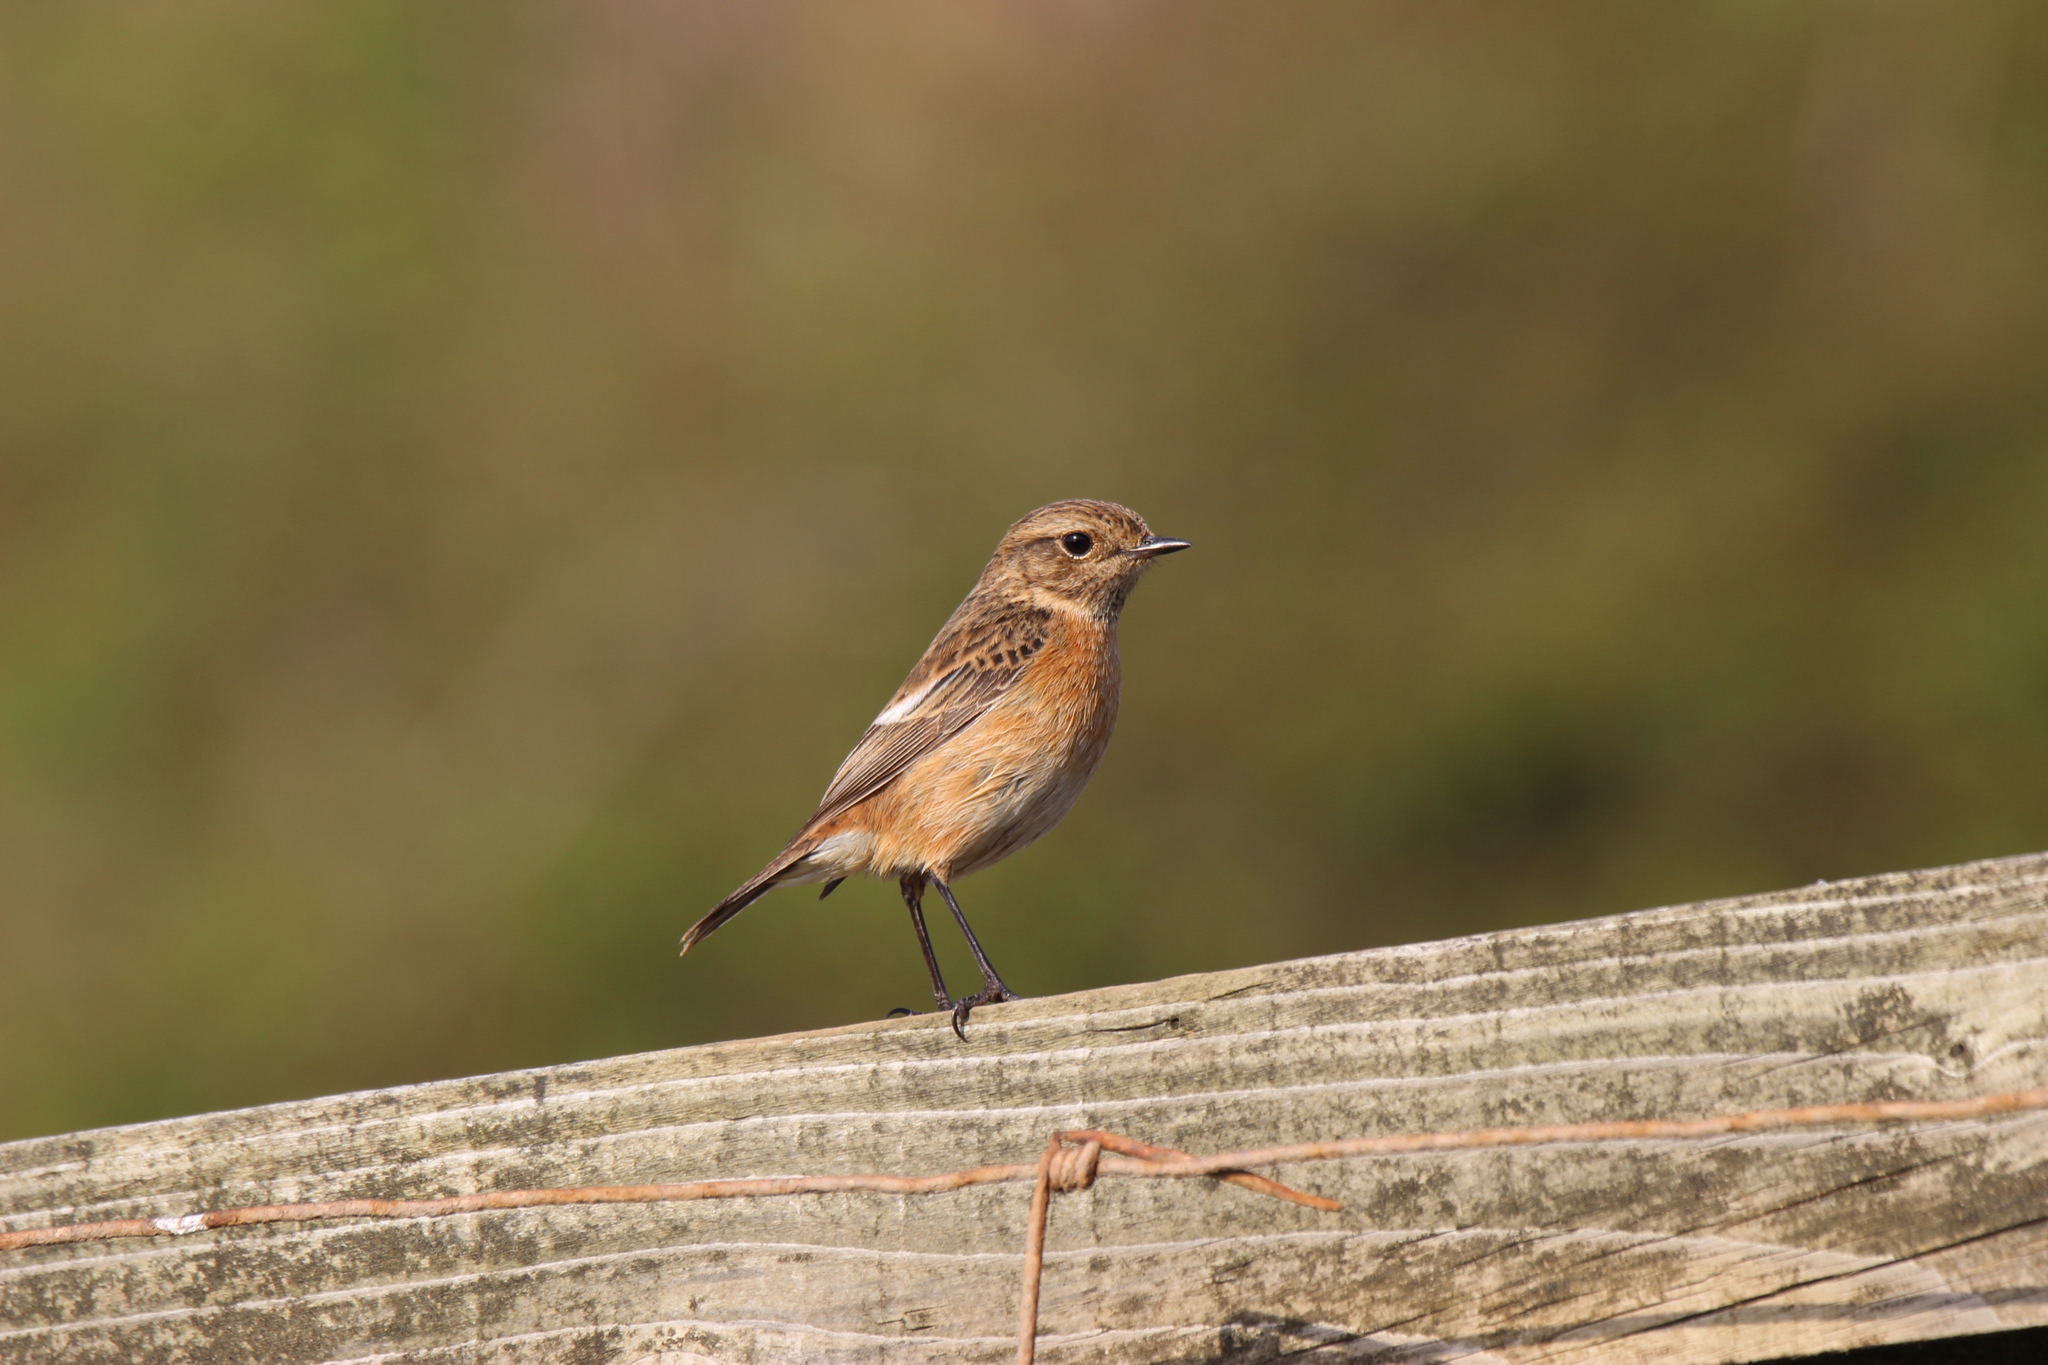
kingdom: Animalia
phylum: Chordata
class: Aves
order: Passeriformes
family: Muscicapidae
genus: Saxicola
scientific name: Saxicola rubicola
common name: European stonechat
